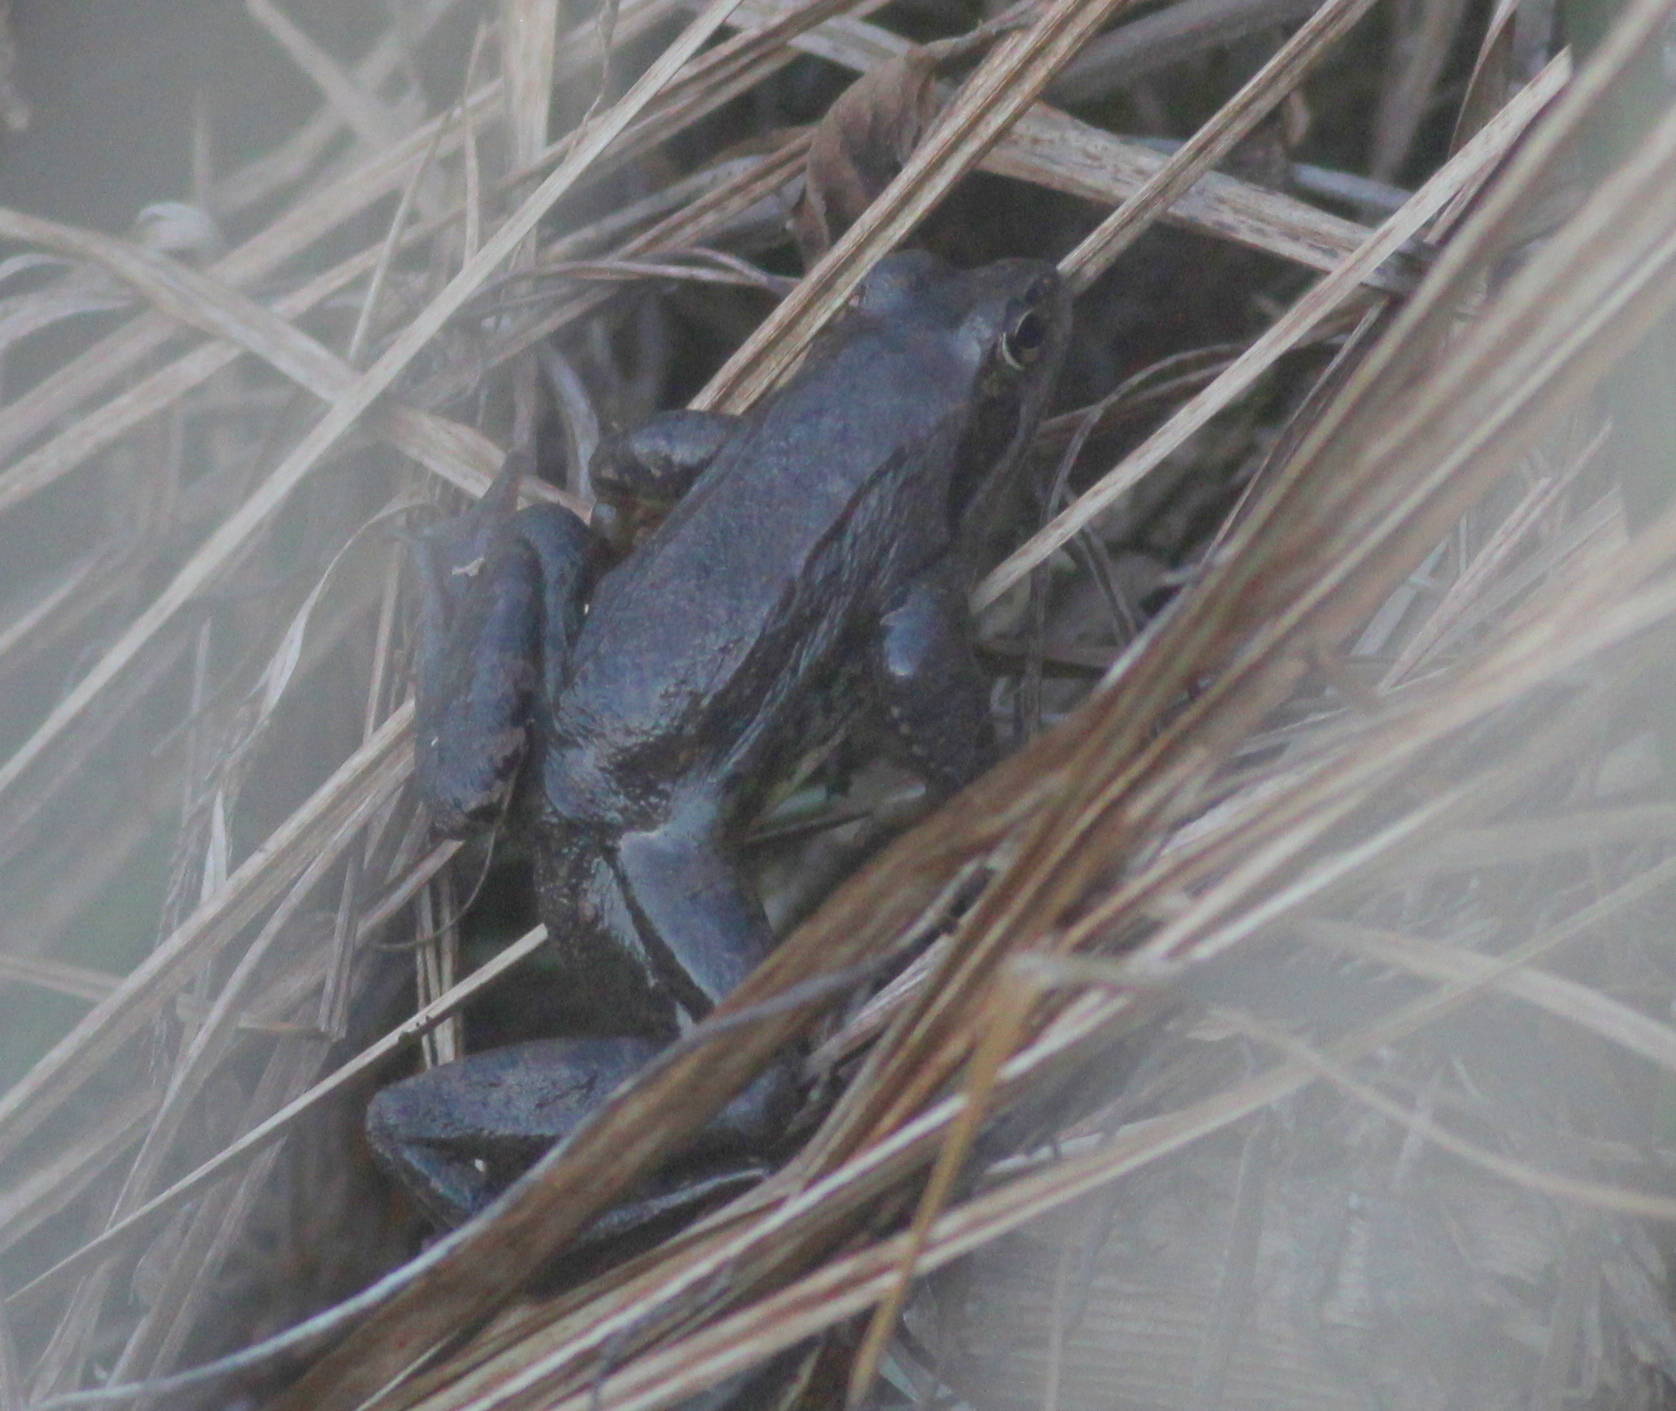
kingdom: Animalia
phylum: Chordata
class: Amphibia
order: Anura
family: Ranidae
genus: Rana
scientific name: Rana temporaria
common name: Common frog
